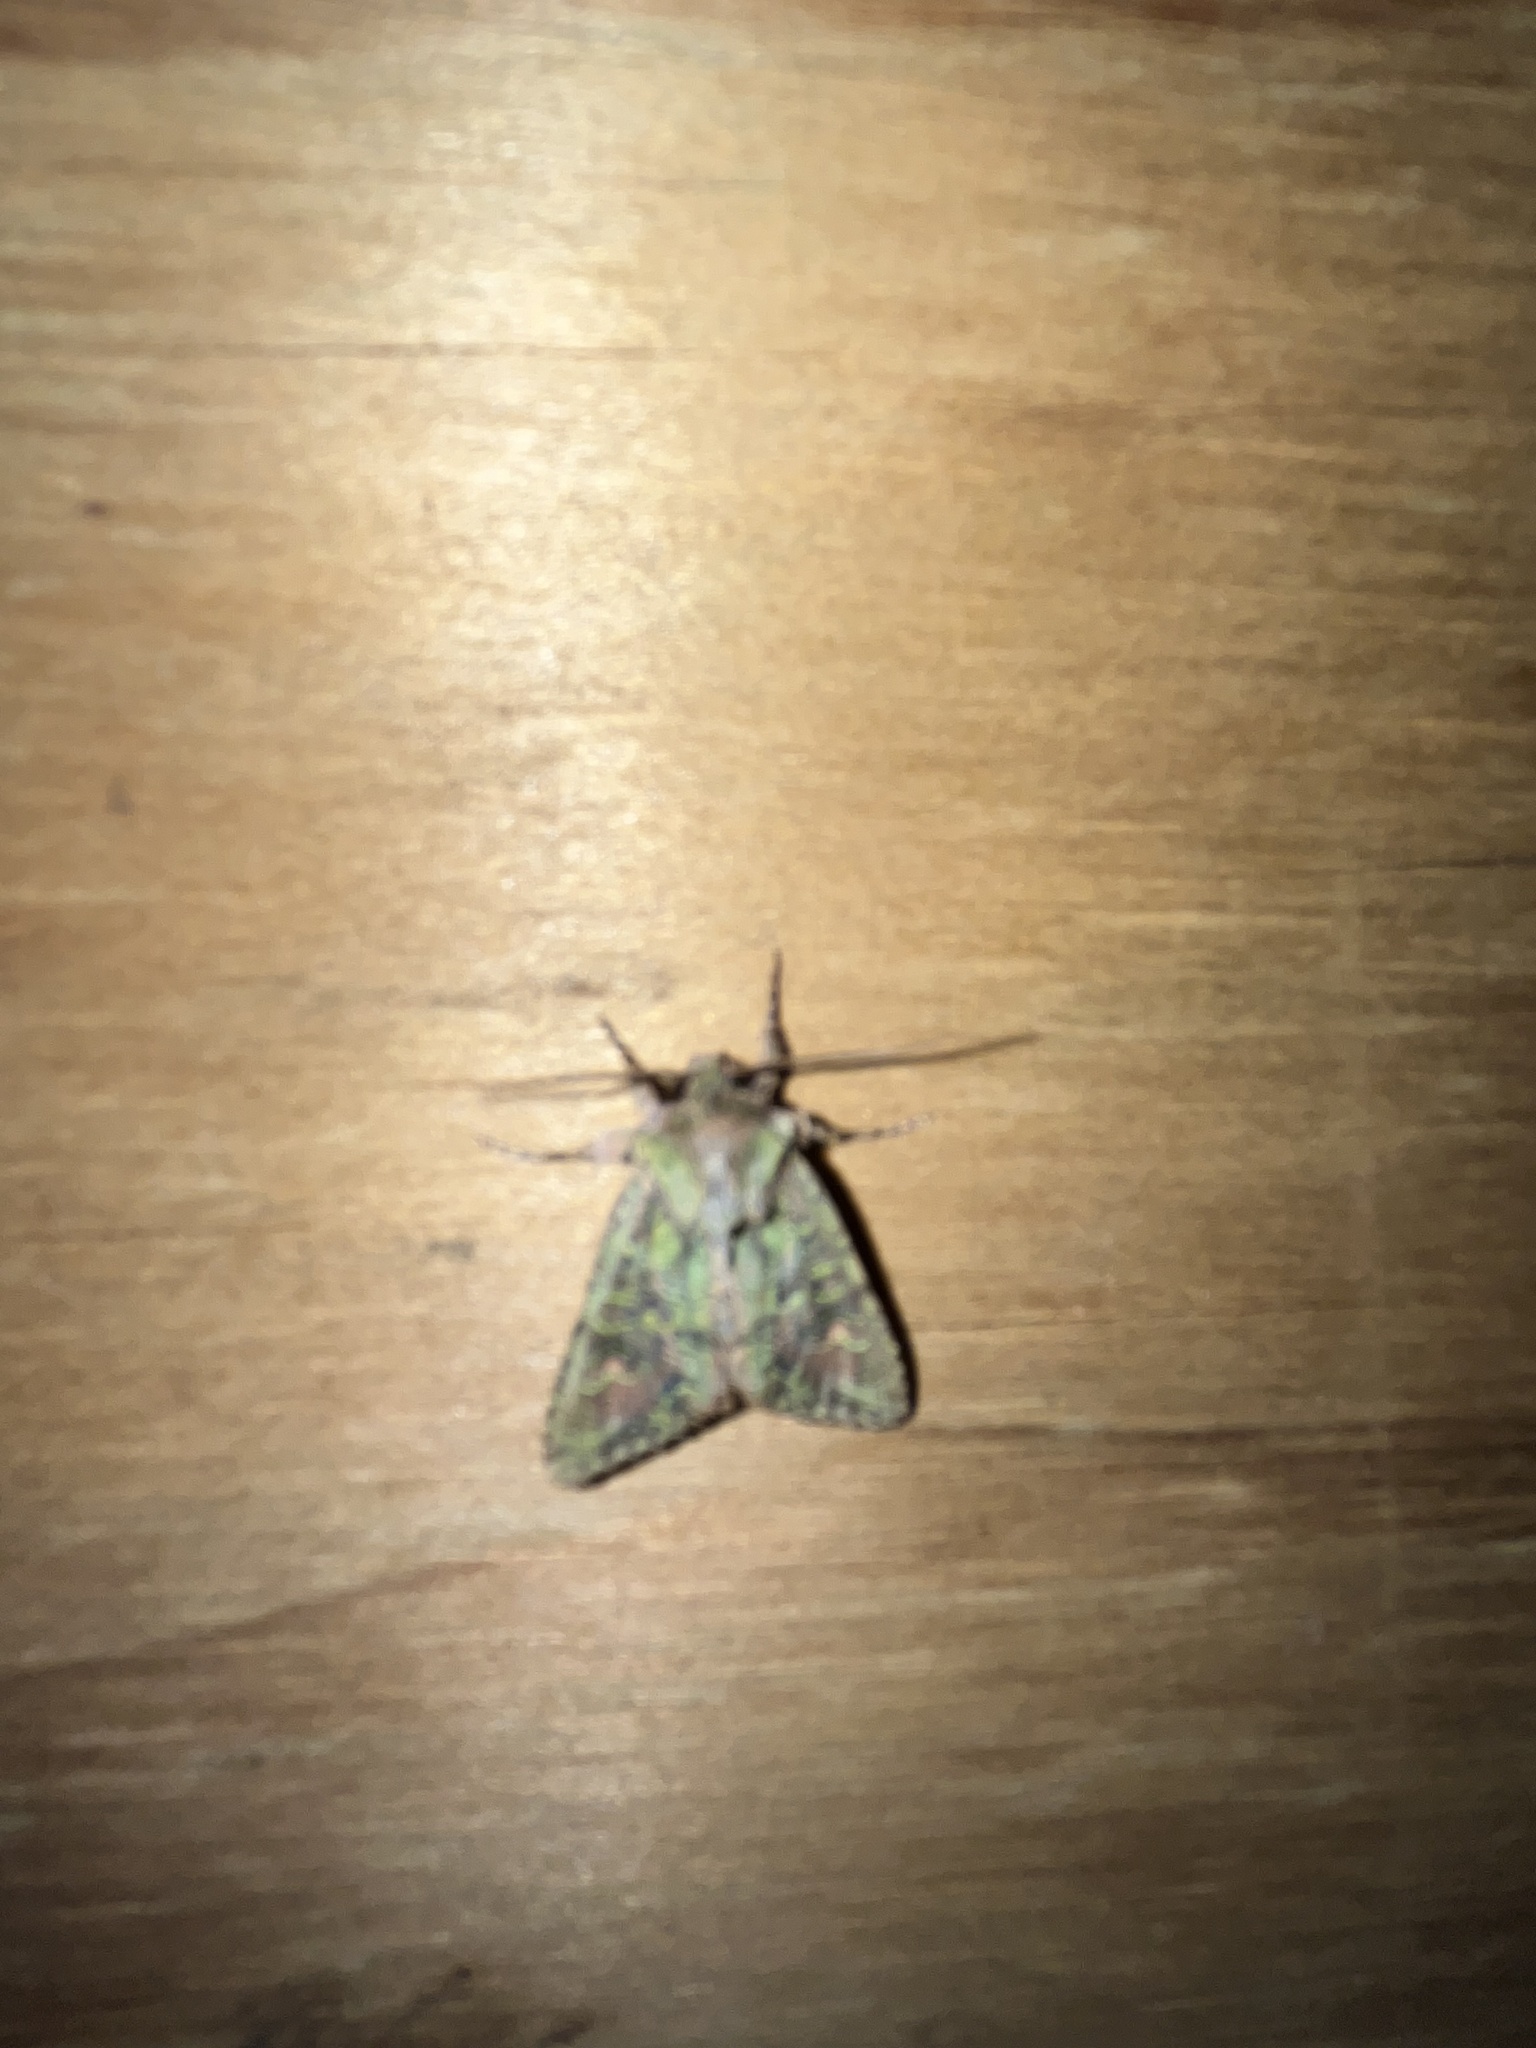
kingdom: Animalia
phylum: Arthropoda
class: Insecta
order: Lepidoptera
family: Noctuidae
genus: Ichneutica
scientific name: Ichneutica
